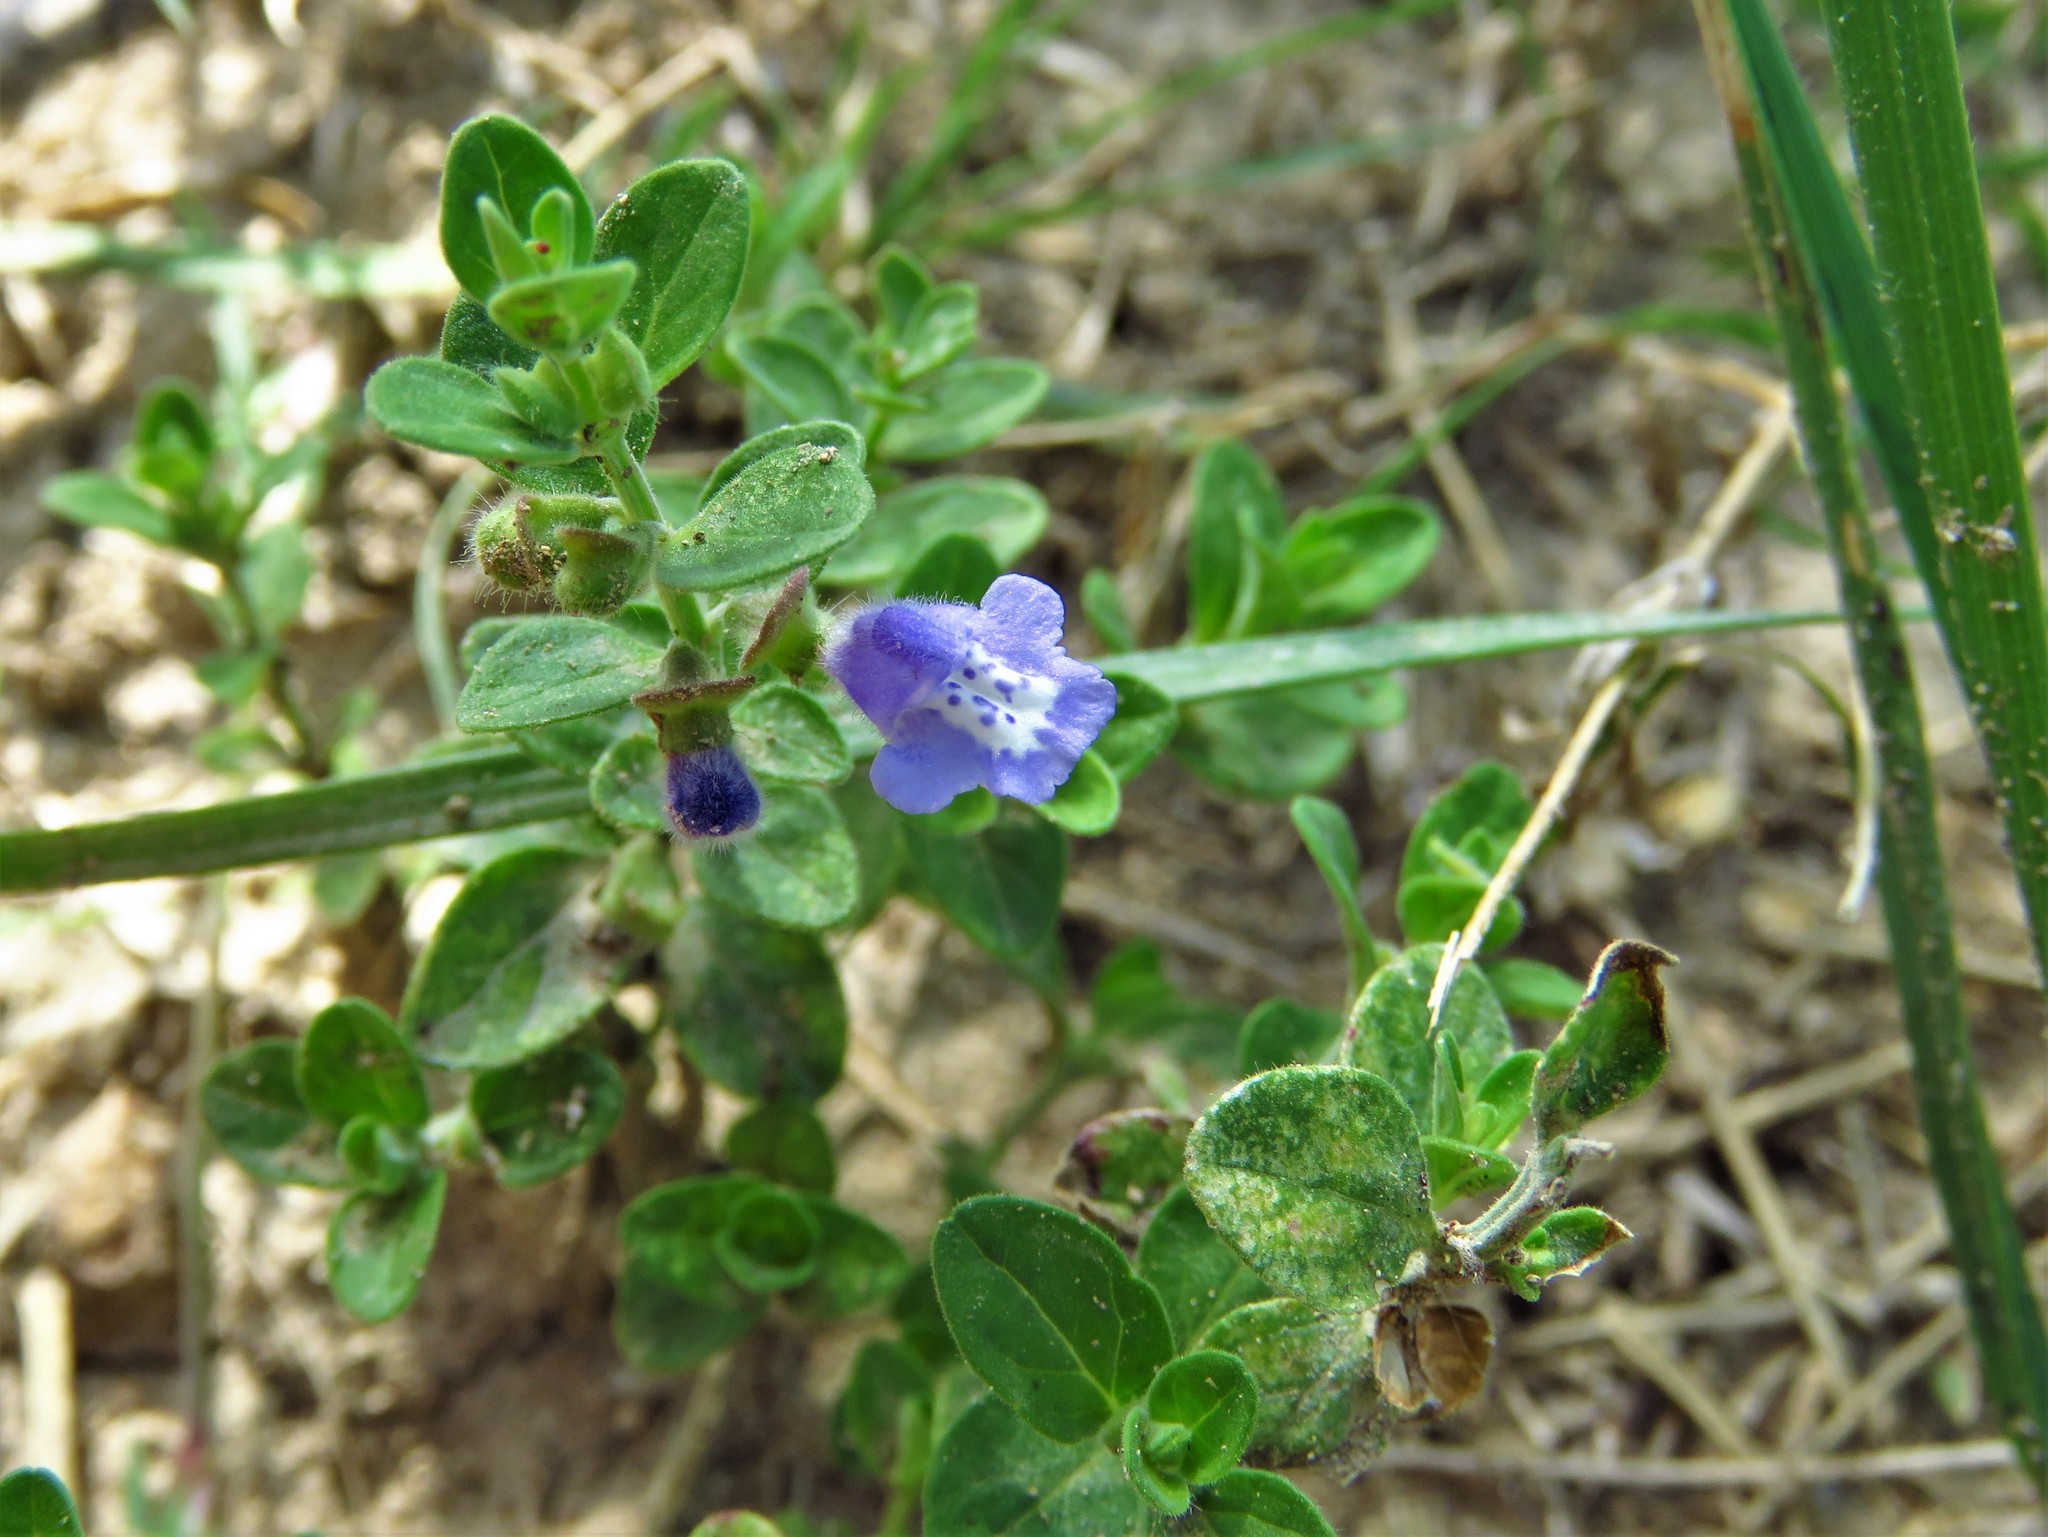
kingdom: Plantae
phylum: Tracheophyta
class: Magnoliopsida
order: Lamiales
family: Lamiaceae
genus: Scutellaria
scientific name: Scutellaria drummondii
